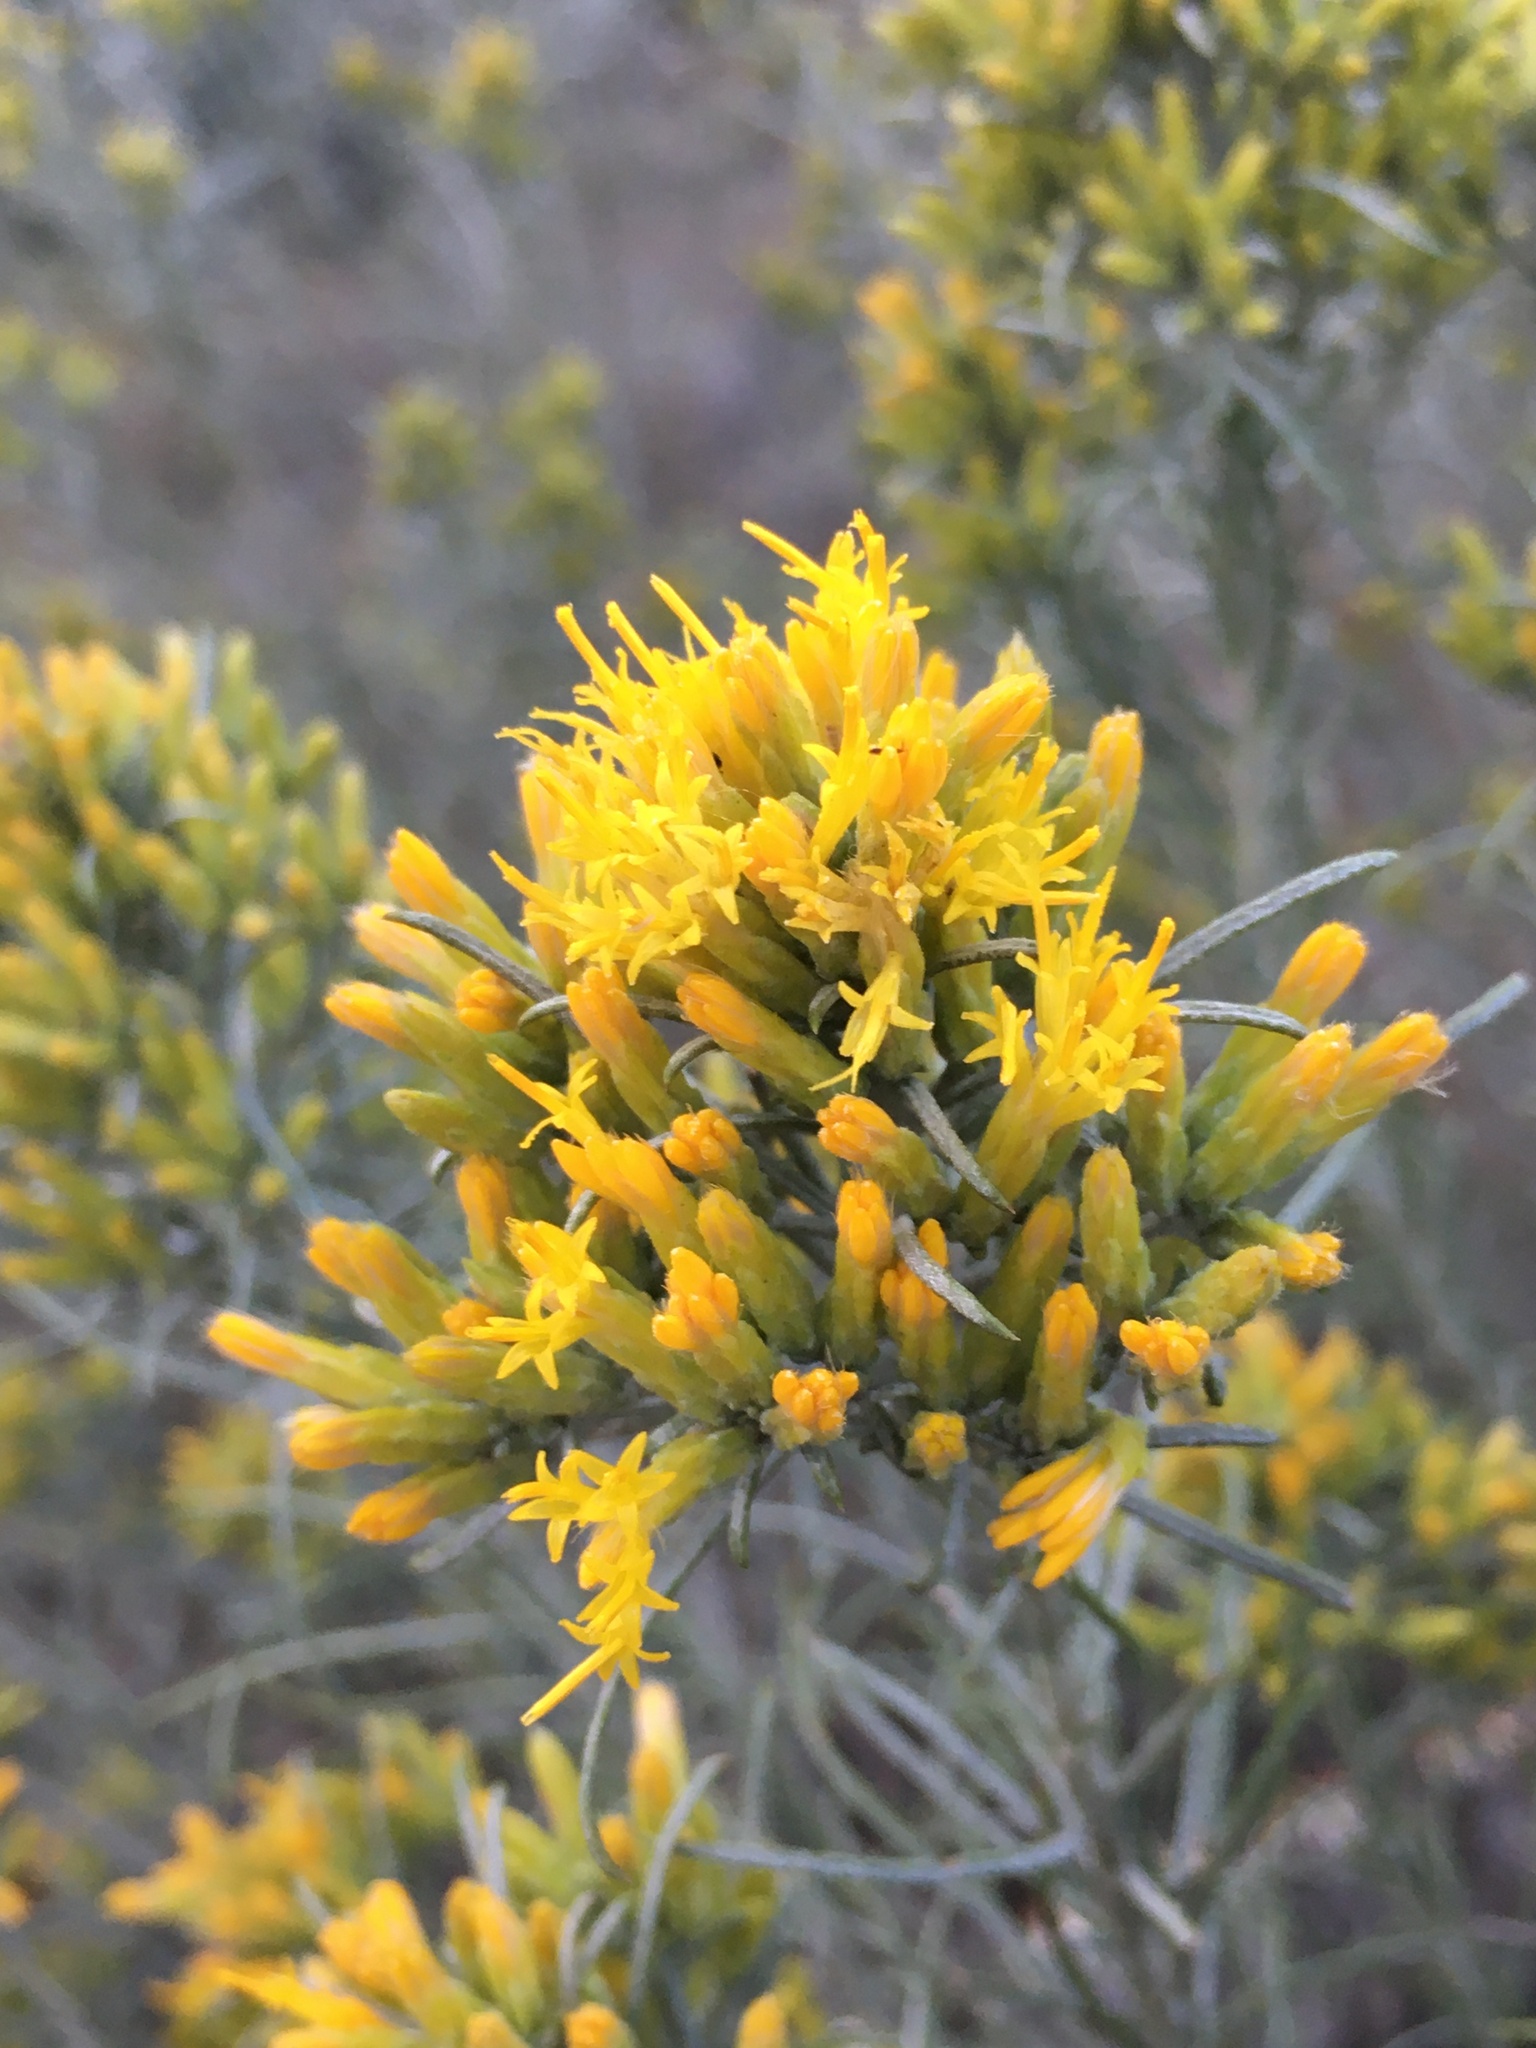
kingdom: Plantae
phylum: Tracheophyta
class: Magnoliopsida
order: Asterales
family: Asteraceae
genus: Ericameria
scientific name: Ericameria nauseosa
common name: Rubber rabbitbrush
